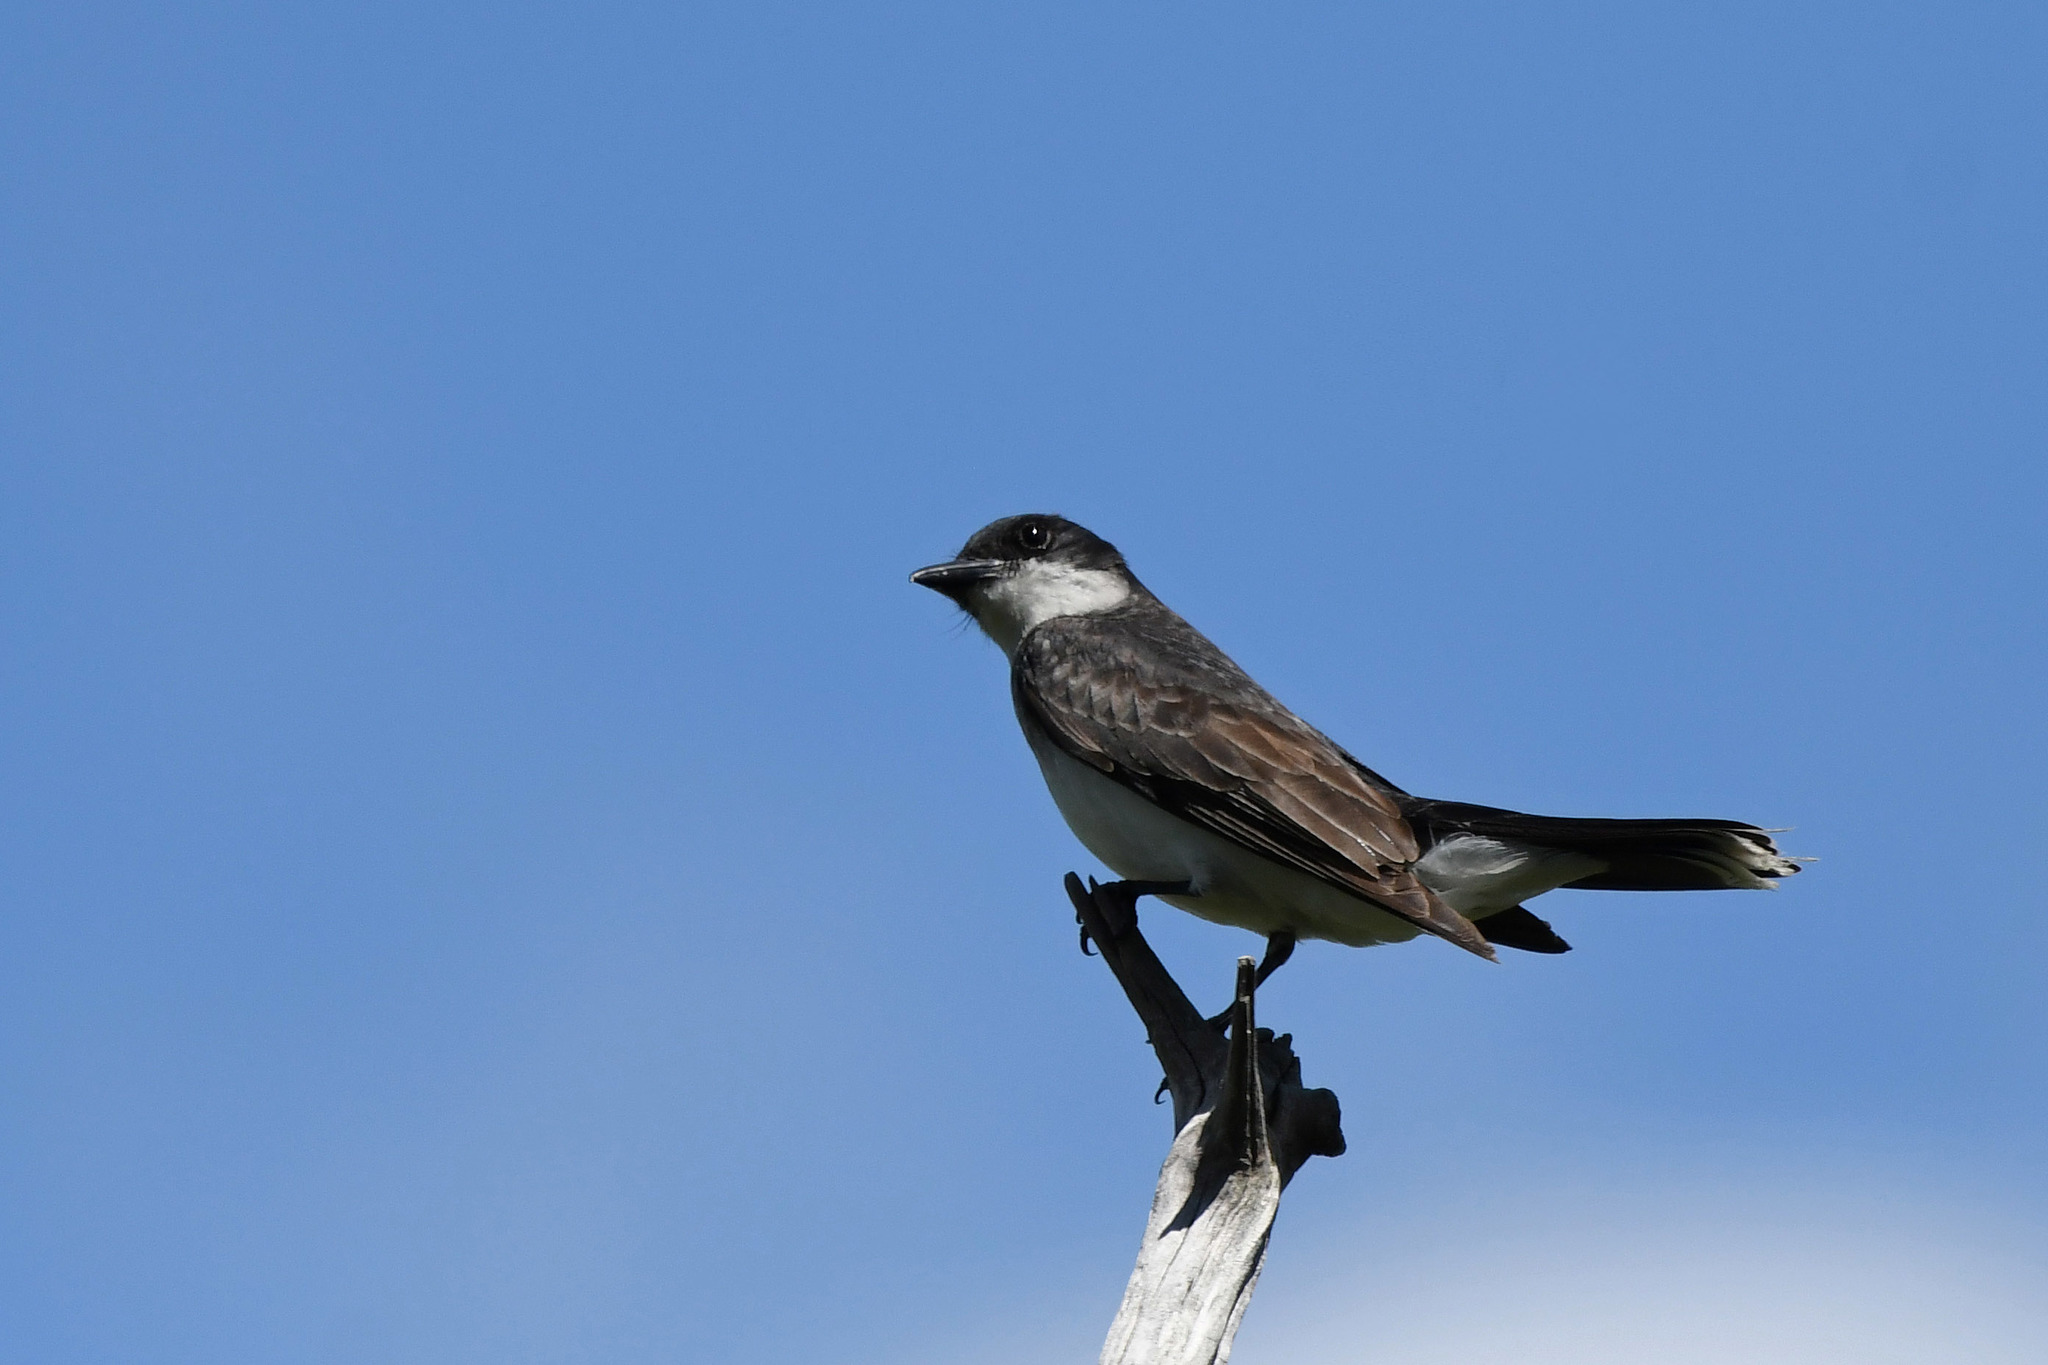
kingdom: Animalia
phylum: Chordata
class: Aves
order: Passeriformes
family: Tyrannidae
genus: Tyrannus
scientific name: Tyrannus tyrannus
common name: Eastern kingbird
